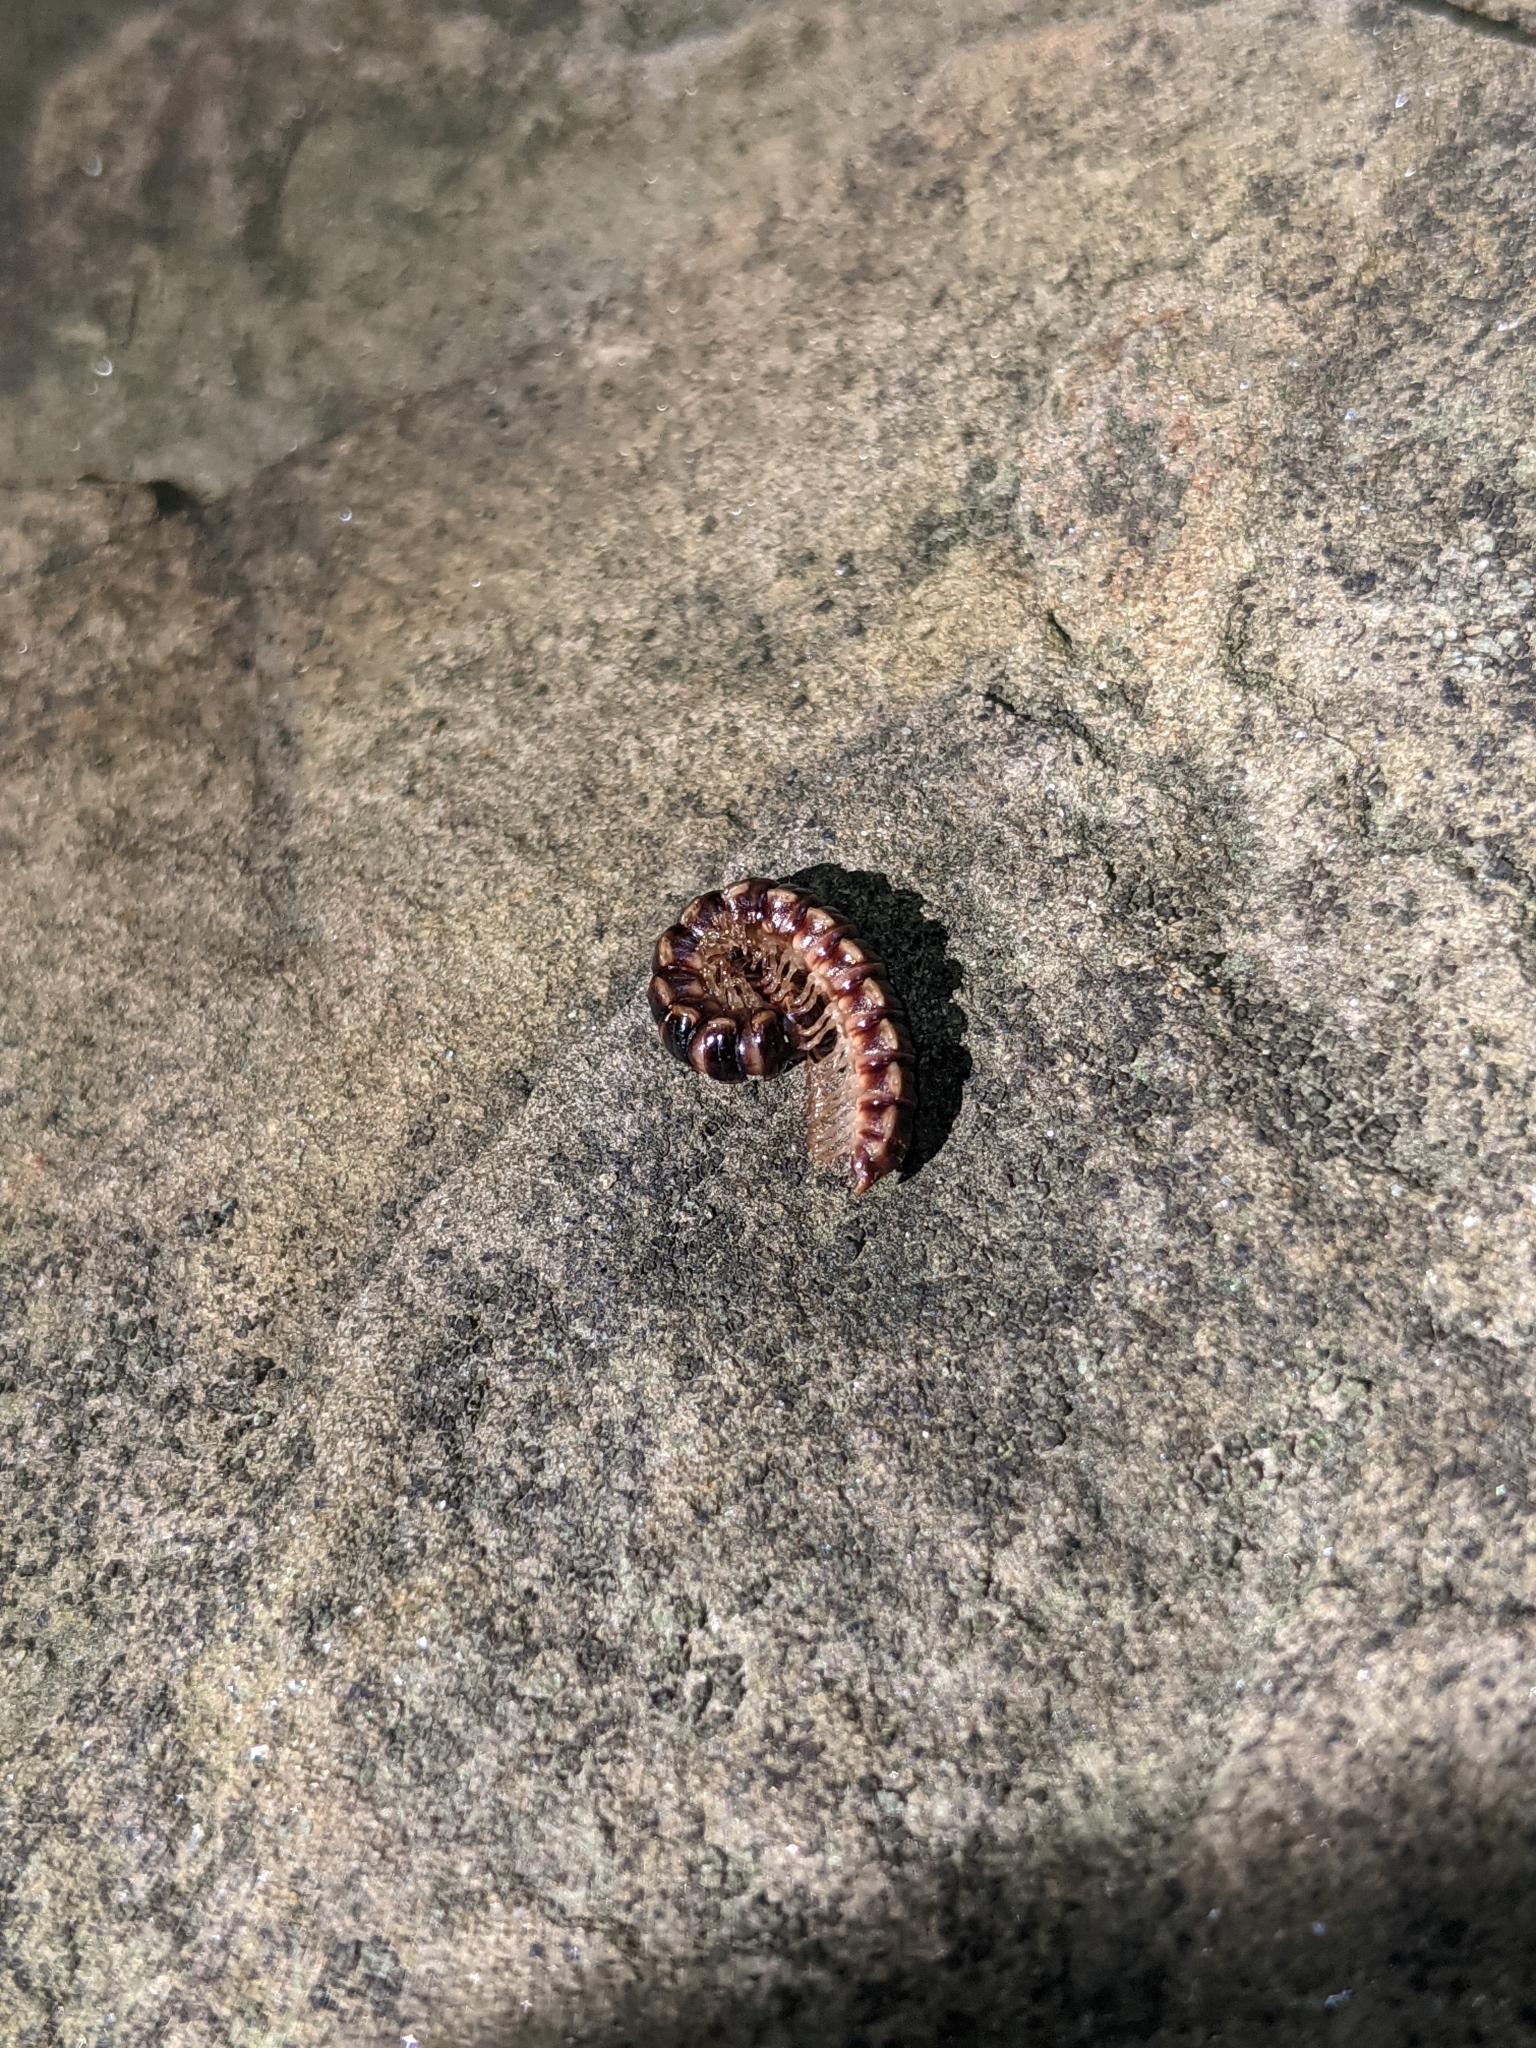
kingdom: Animalia
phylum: Arthropoda
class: Diplopoda
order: Polydesmida
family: Paradoxosomatidae
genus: Oxidus
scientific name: Oxidus gracilis
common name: Greenhouse millipede
